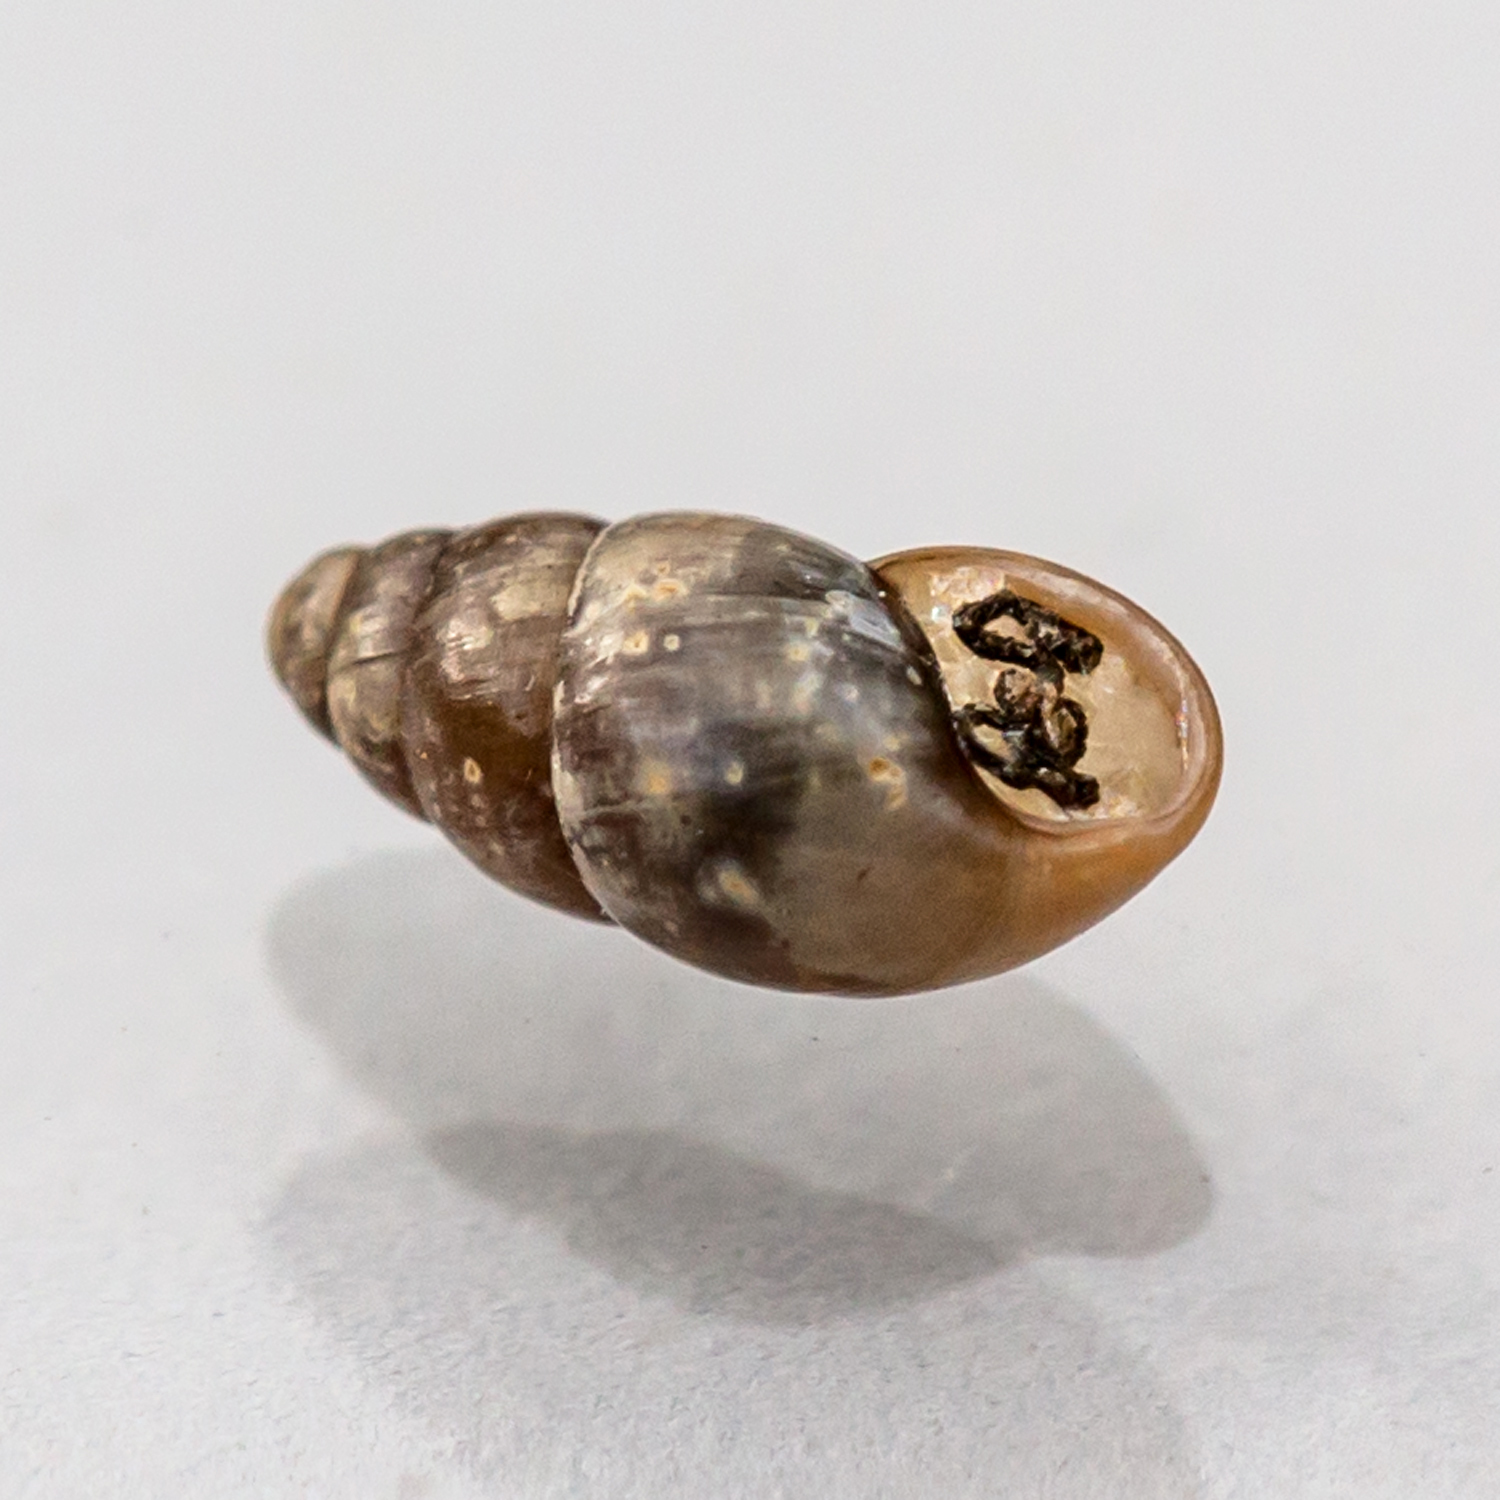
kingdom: Animalia
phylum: Mollusca
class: Gastropoda
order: Stylommatophora
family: Cochlicopidae
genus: Cochlicopa
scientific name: Cochlicopa lubricella
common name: Lesser slippery moss snail
